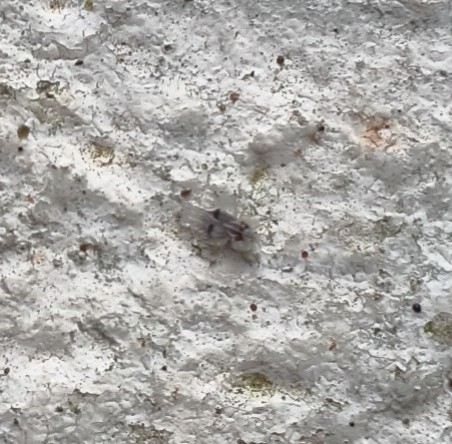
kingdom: Animalia
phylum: Arthropoda
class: Insecta
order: Hemiptera
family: Tingidae
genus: Corythucha
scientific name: Corythucha ciliata
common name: Sycamore lace bug
